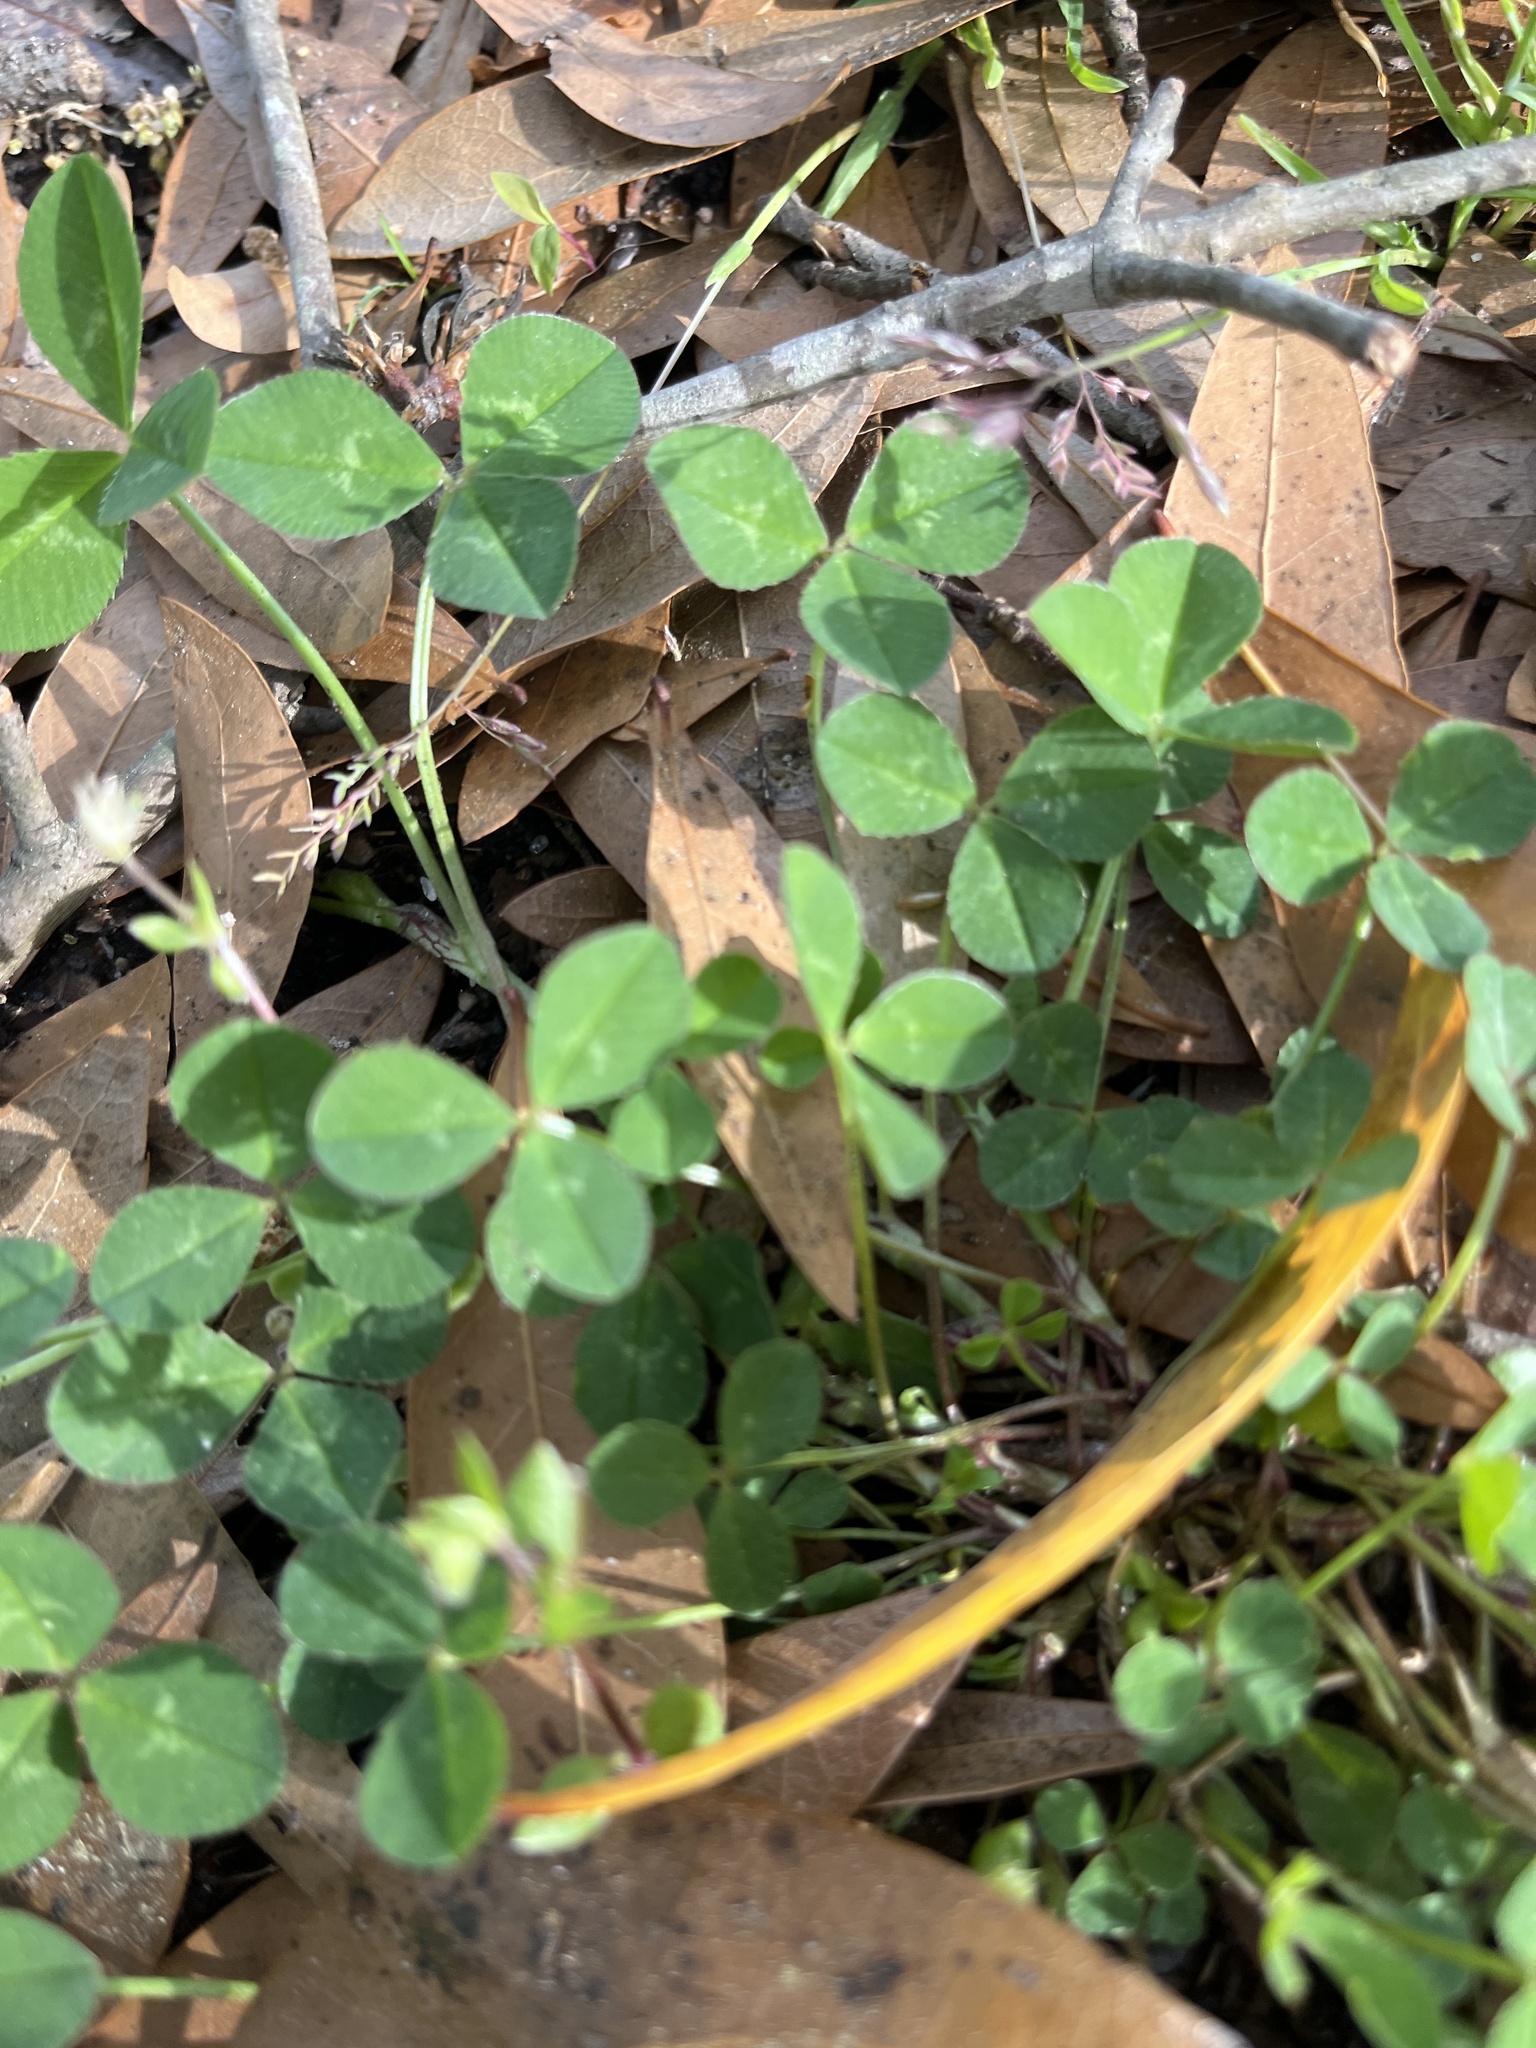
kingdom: Plantae
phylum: Tracheophyta
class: Magnoliopsida
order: Fabales
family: Fabaceae
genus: Trifolium
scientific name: Trifolium repens
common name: White clover
